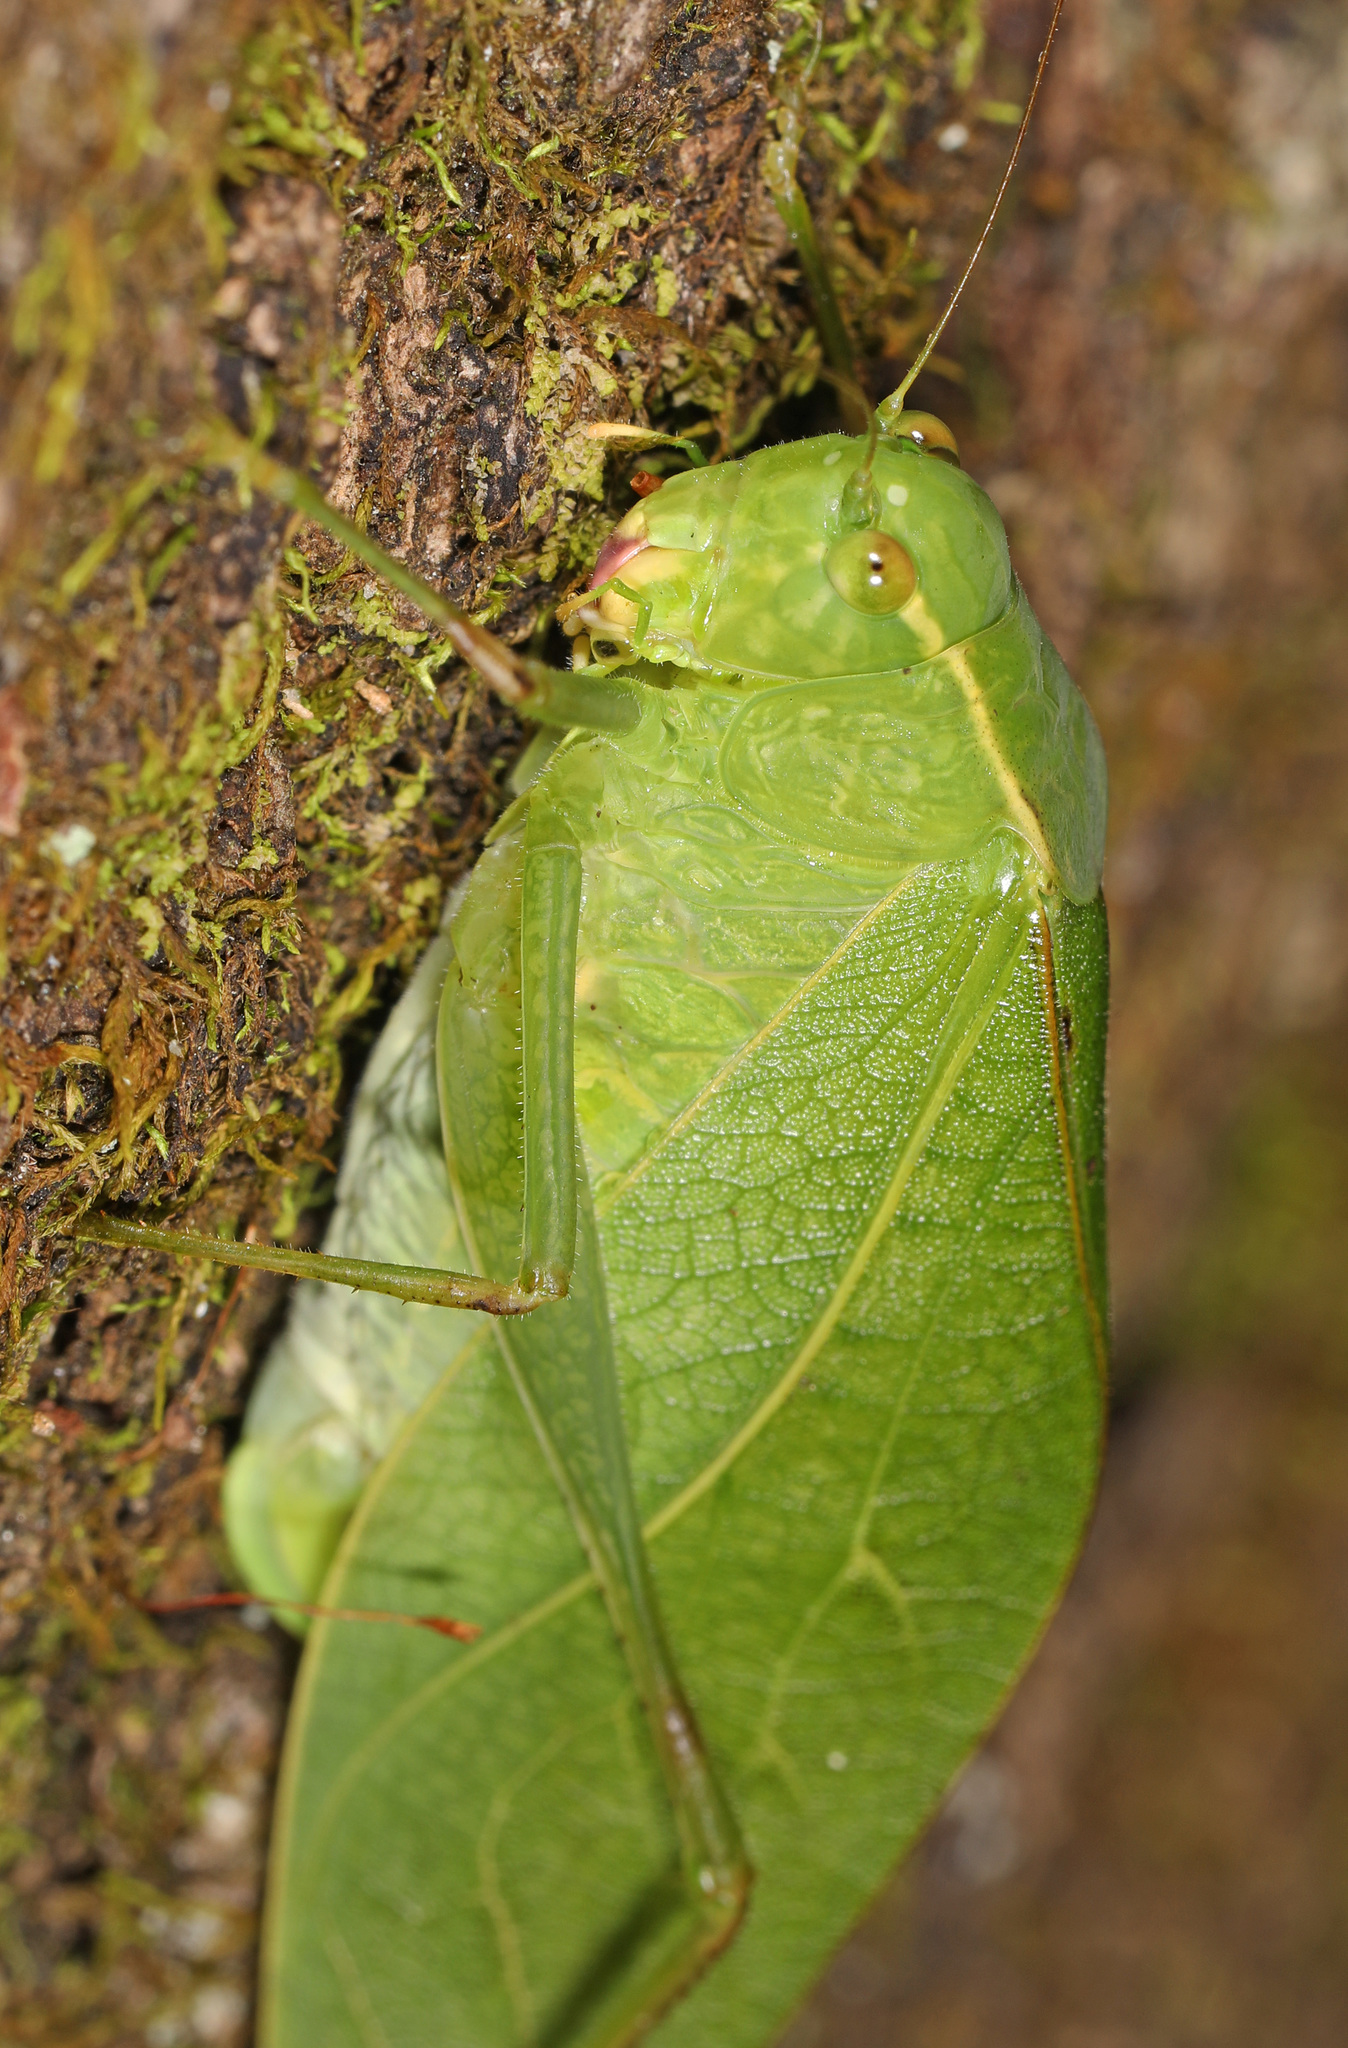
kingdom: Animalia
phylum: Arthropoda
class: Insecta
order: Orthoptera
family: Tettigoniidae
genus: Microcentrum
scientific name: Microcentrum retinerve
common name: Angular-winged katydid
